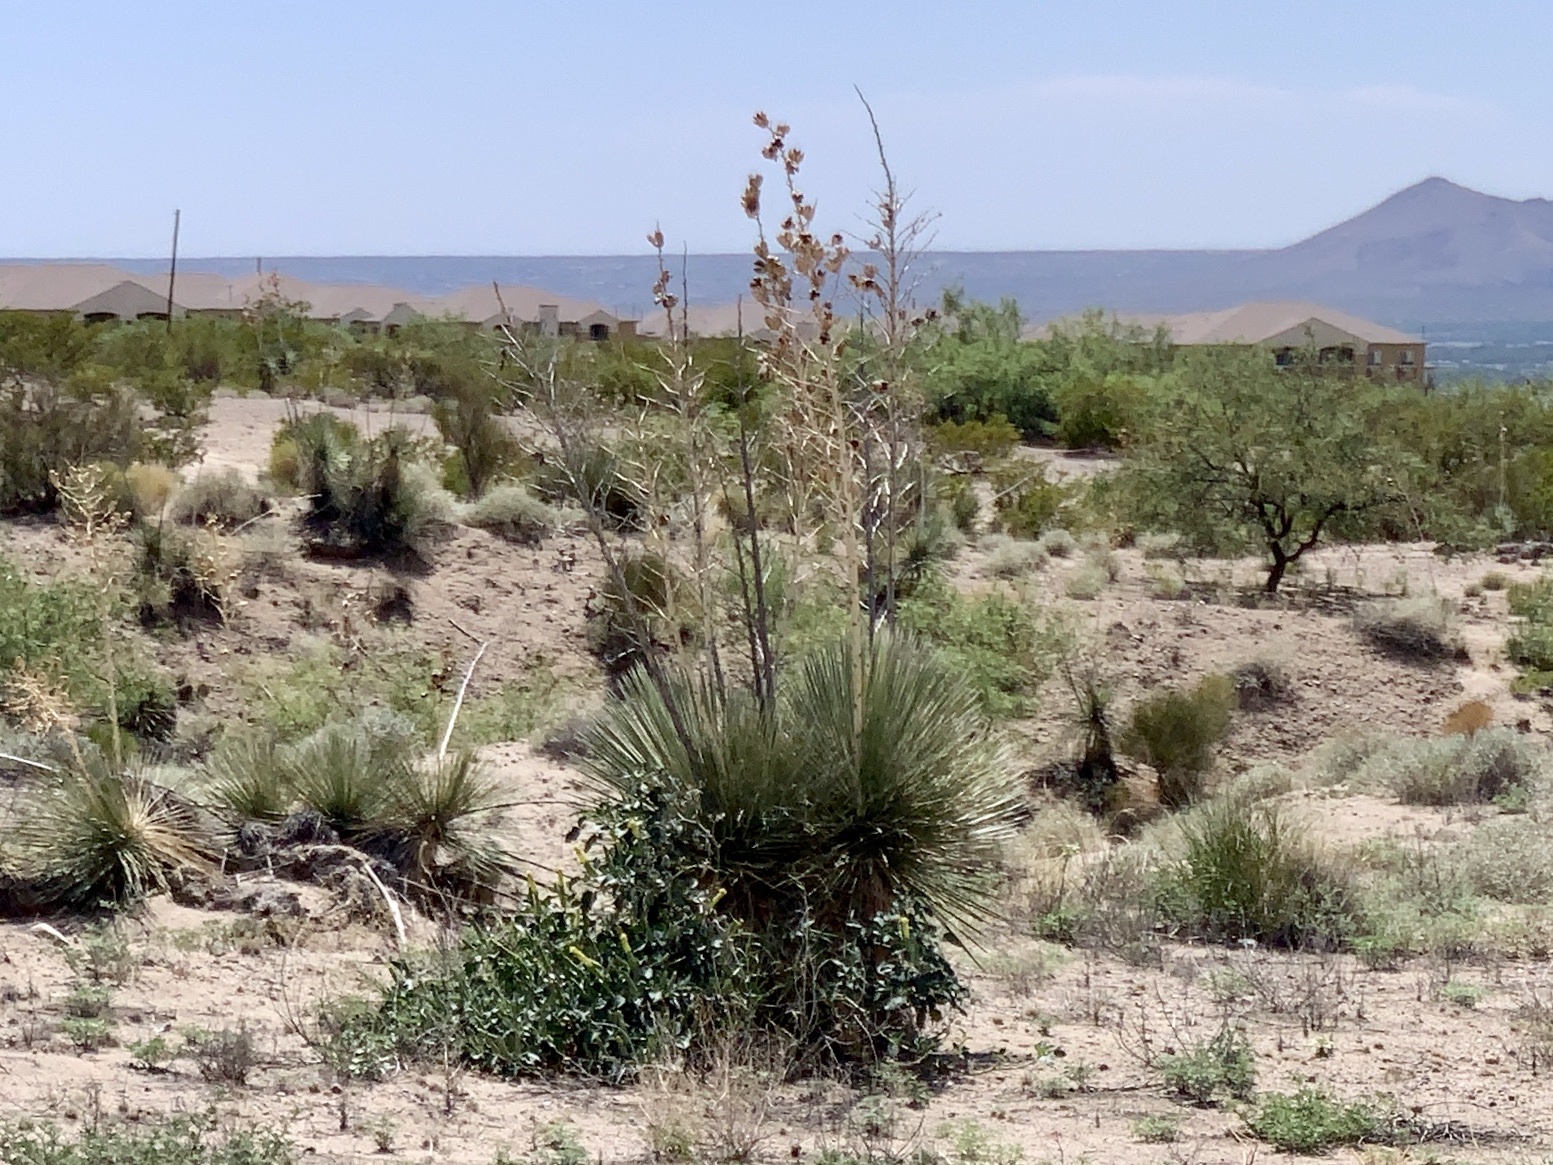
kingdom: Plantae
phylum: Tracheophyta
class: Liliopsida
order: Asparagales
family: Asparagaceae
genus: Yucca
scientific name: Yucca elata
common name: Palmella
